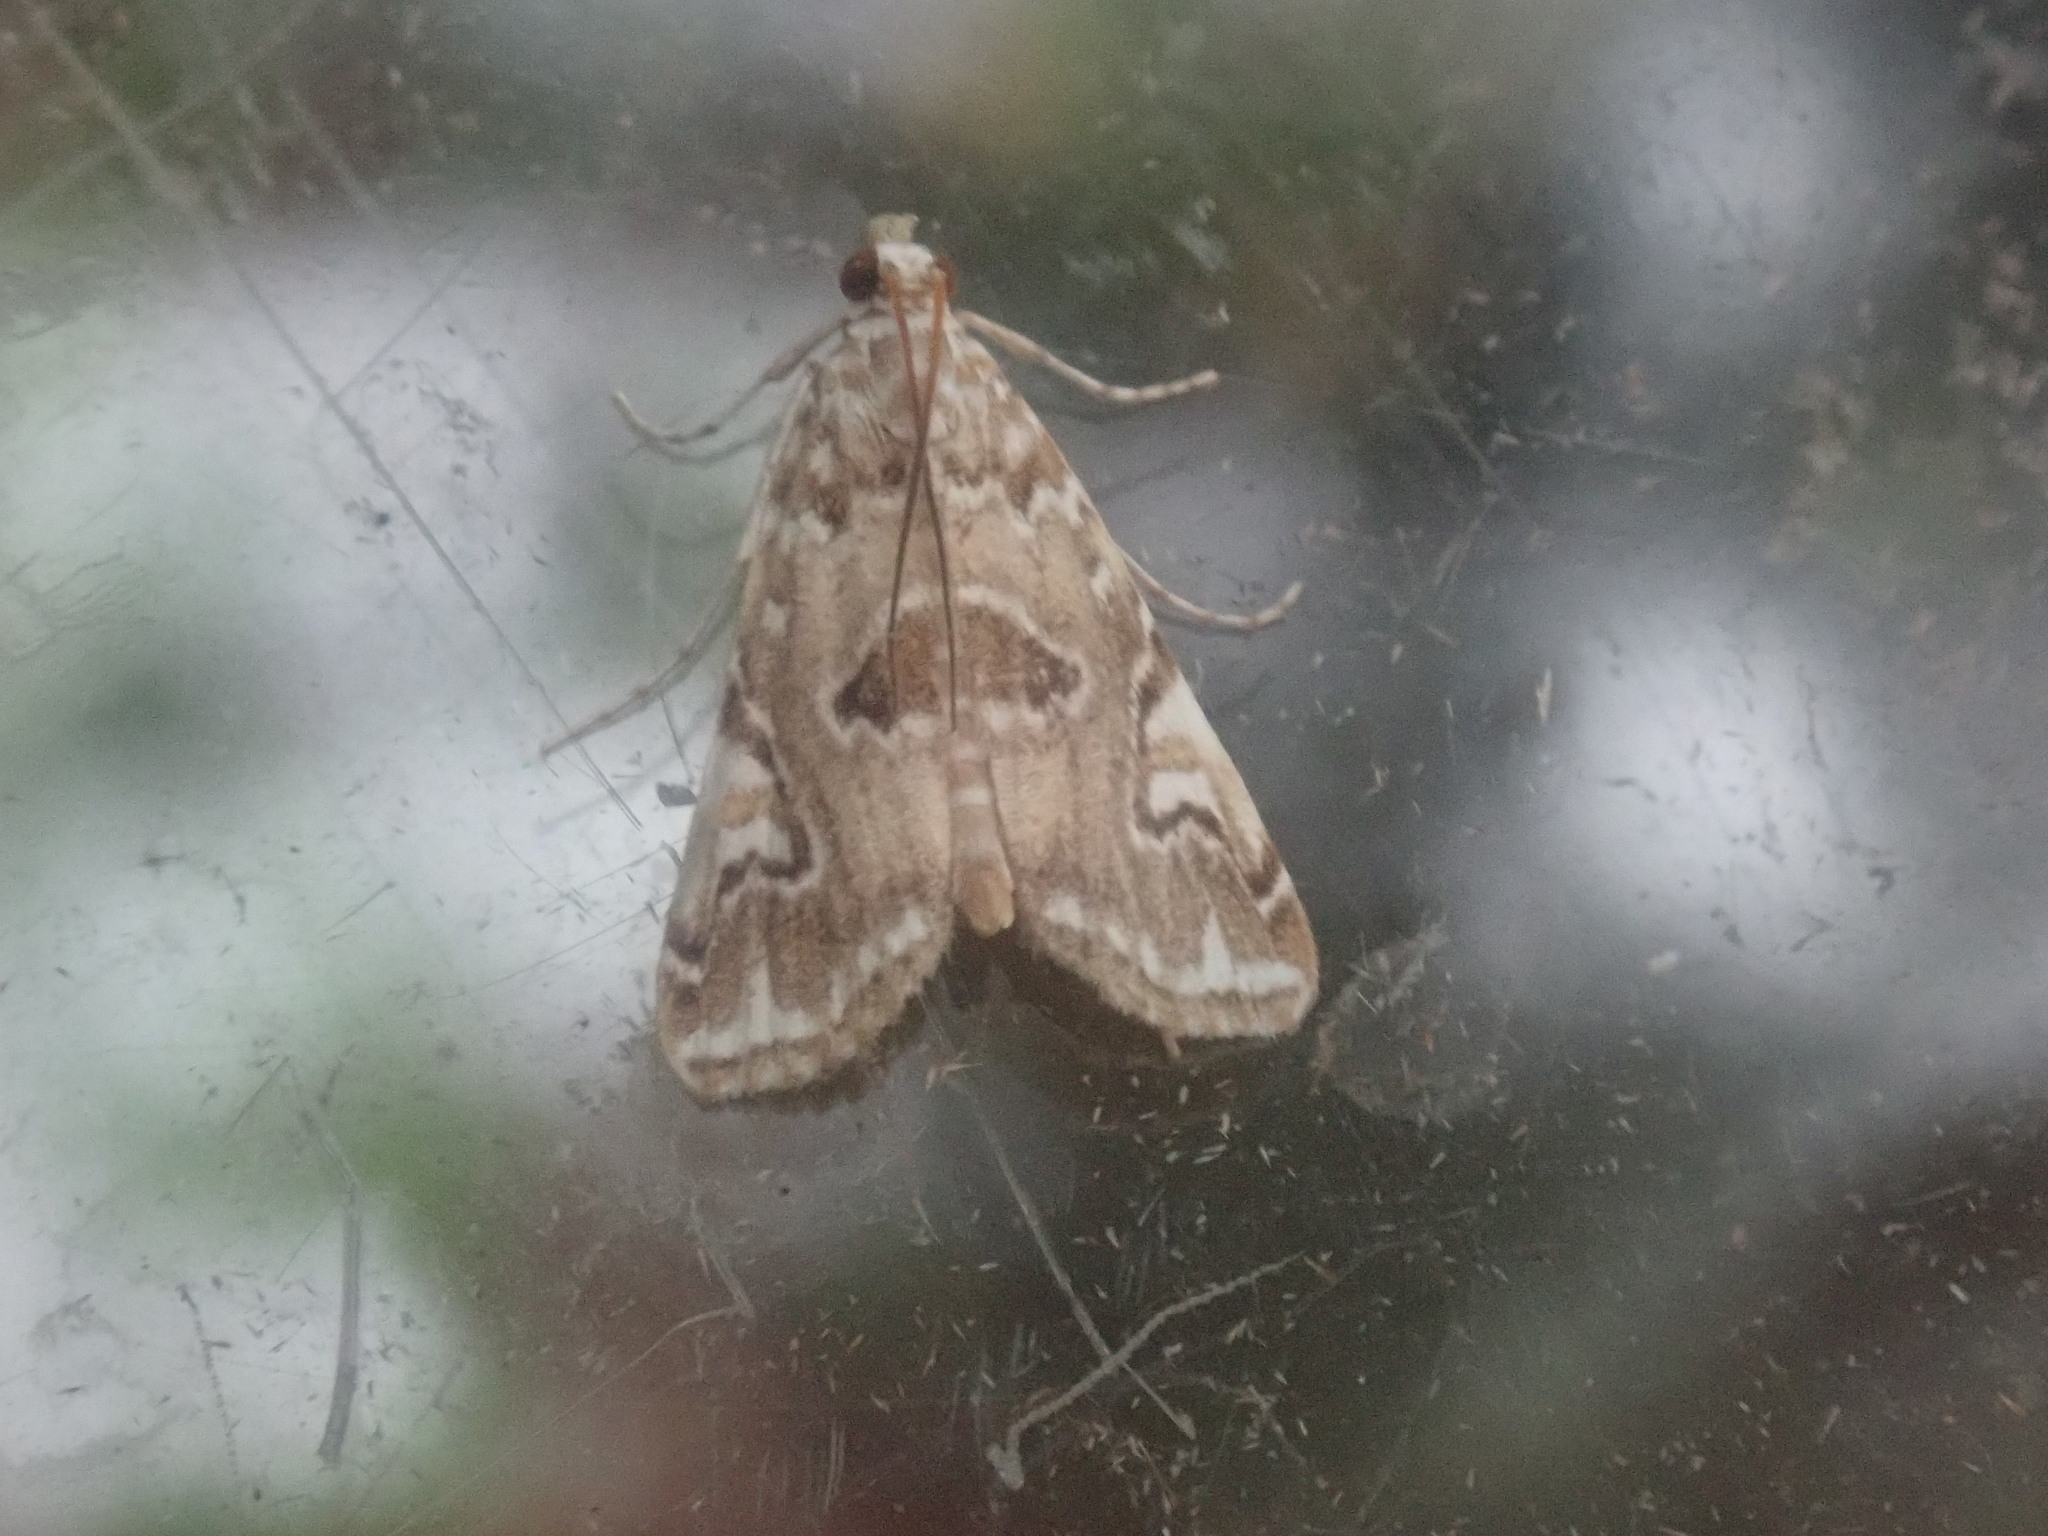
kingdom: Animalia
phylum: Arthropoda
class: Insecta
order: Lepidoptera
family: Crambidae
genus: Elophila
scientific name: Elophila gyralis
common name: Waterlily borer moth
